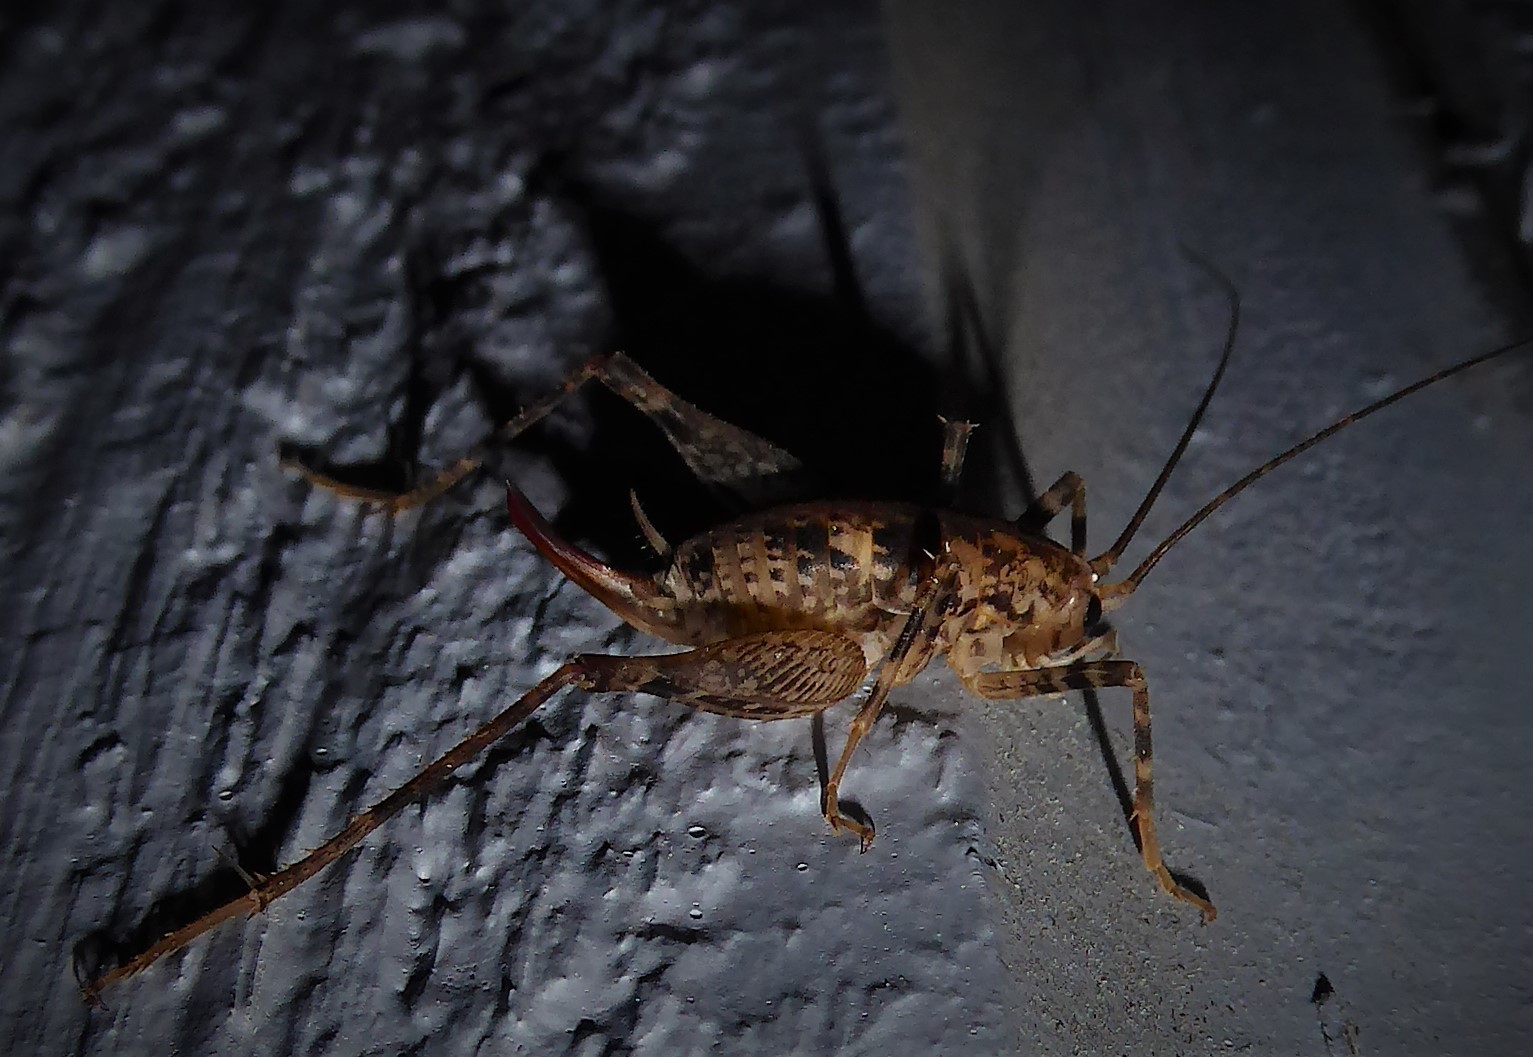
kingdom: Animalia
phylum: Arthropoda
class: Insecta
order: Orthoptera
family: Rhaphidophoridae
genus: Pleioplectron
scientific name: Pleioplectron simplex
